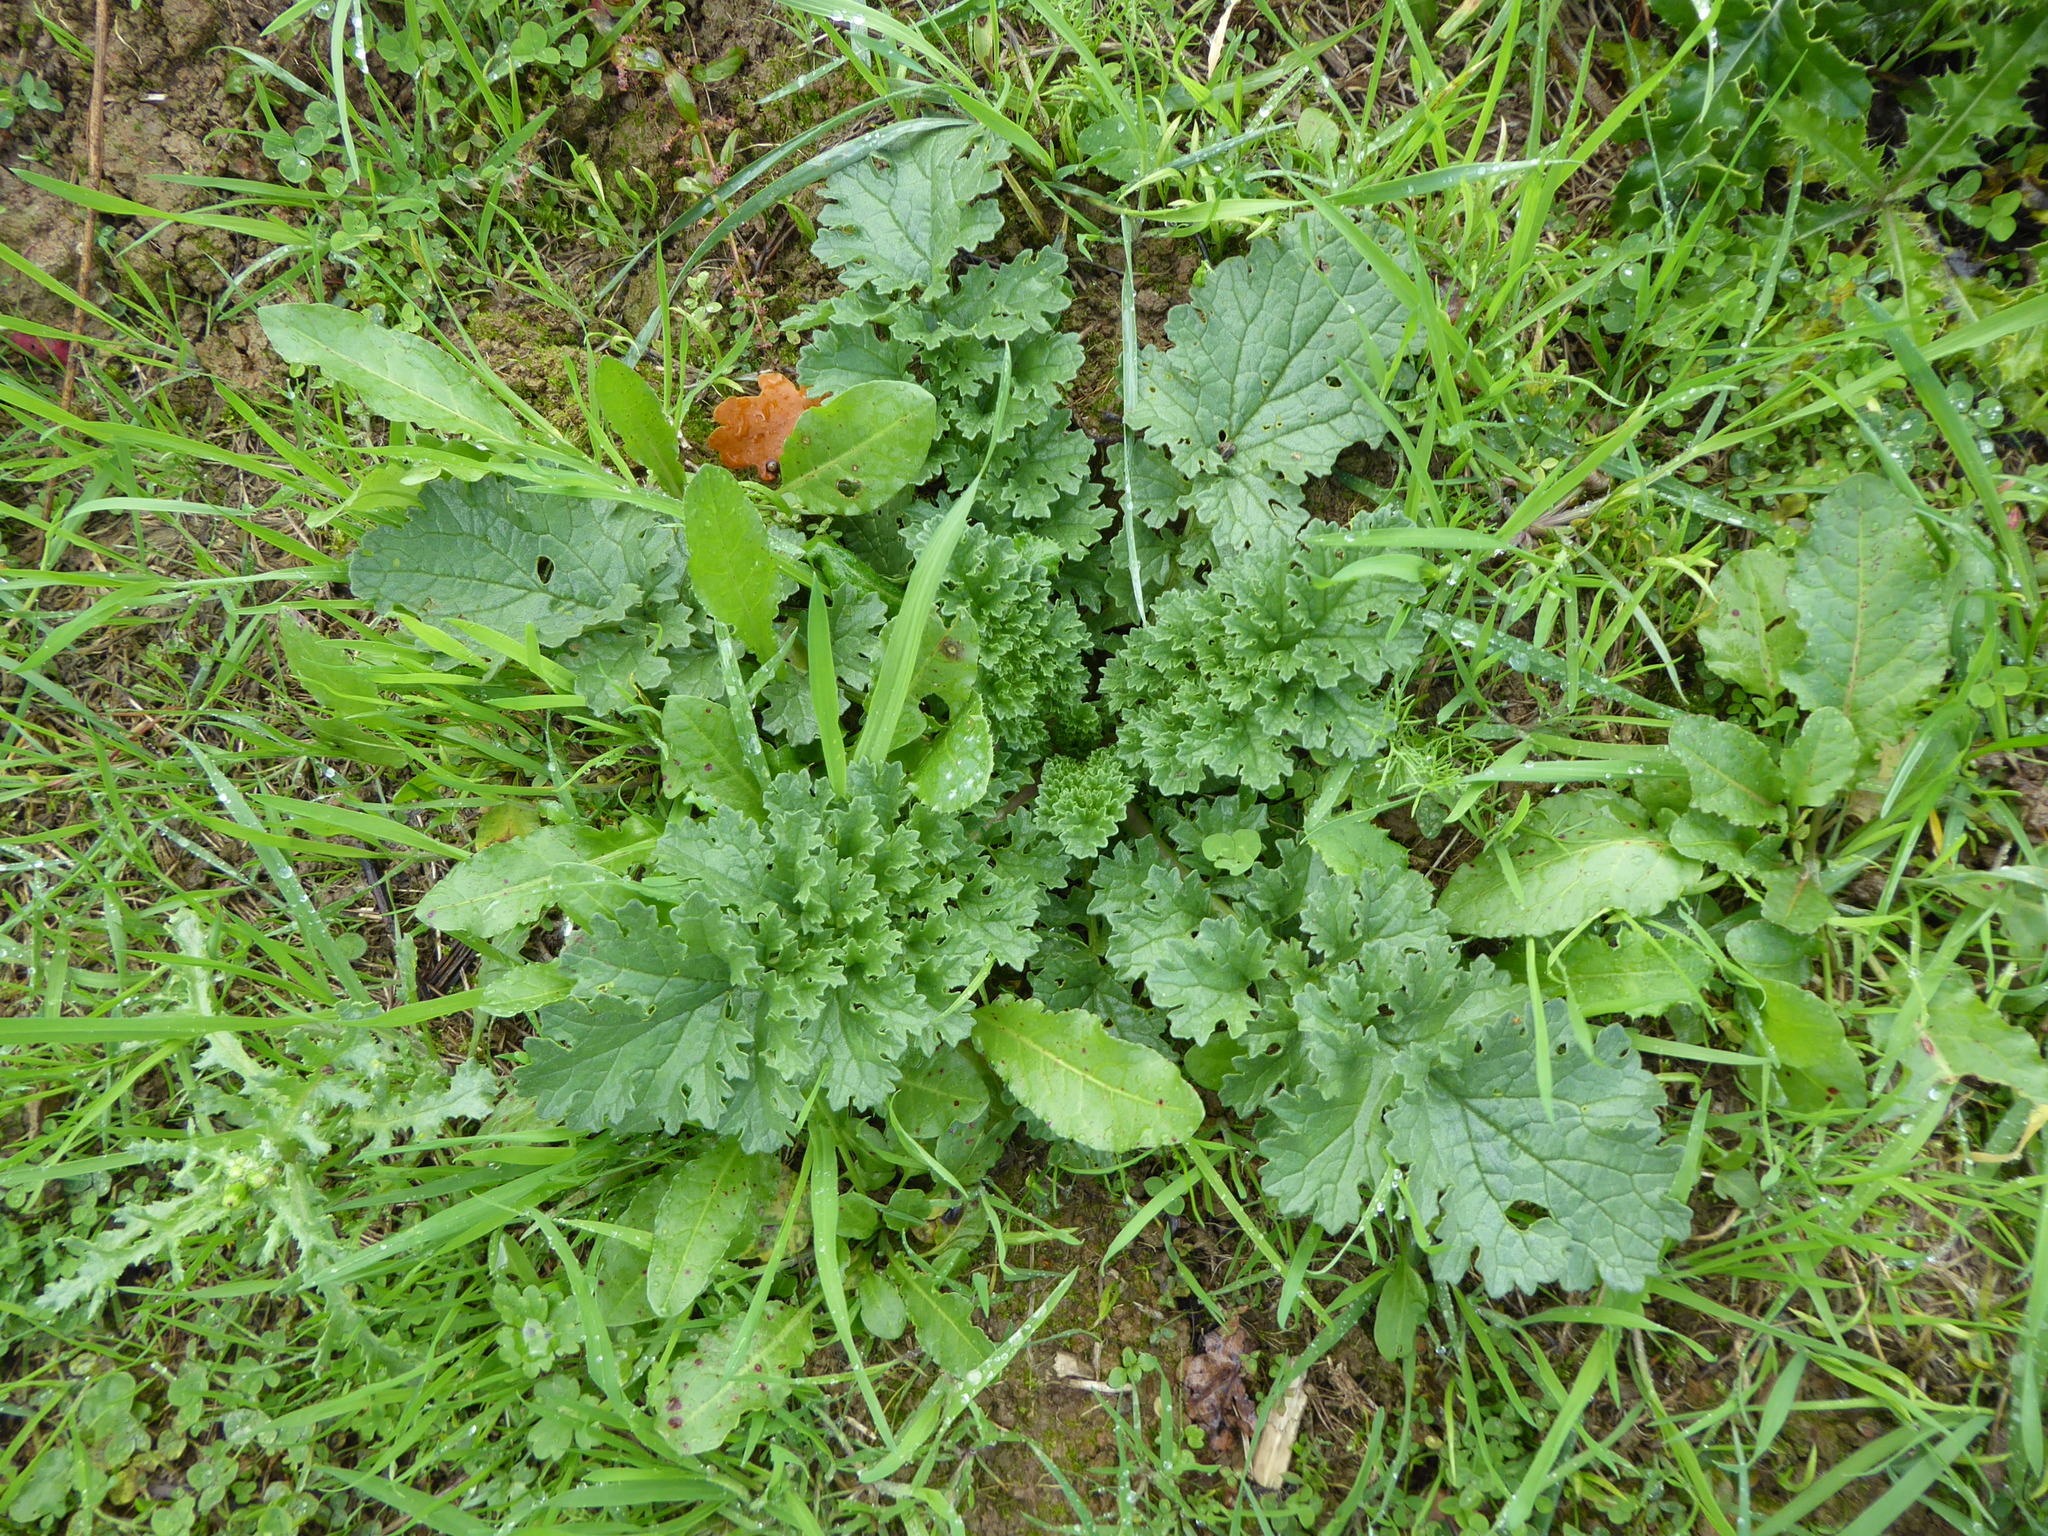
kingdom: Plantae
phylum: Tracheophyta
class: Magnoliopsida
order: Asterales
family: Asteraceae
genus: Jacobaea
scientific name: Jacobaea vulgaris
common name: Stinking willie
